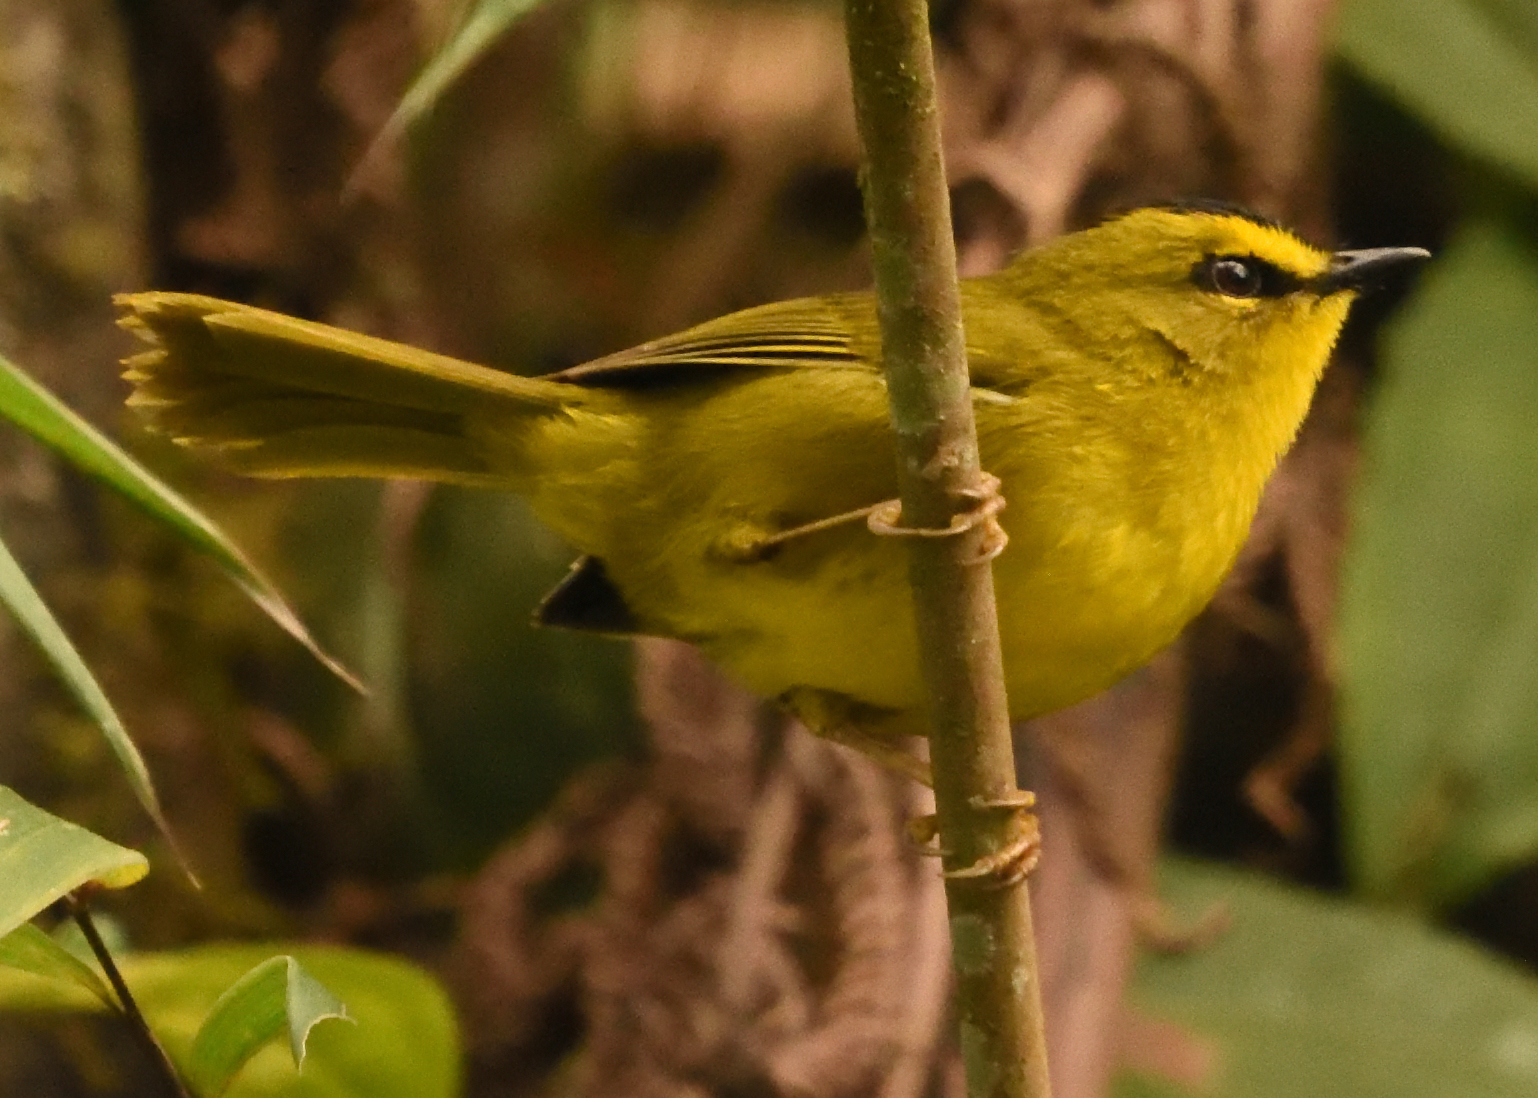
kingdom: Animalia
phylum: Chordata
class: Aves
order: Passeriformes
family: Parulidae
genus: Myiothlypis
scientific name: Myiothlypis nigrocristata
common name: Black-crested warbler
